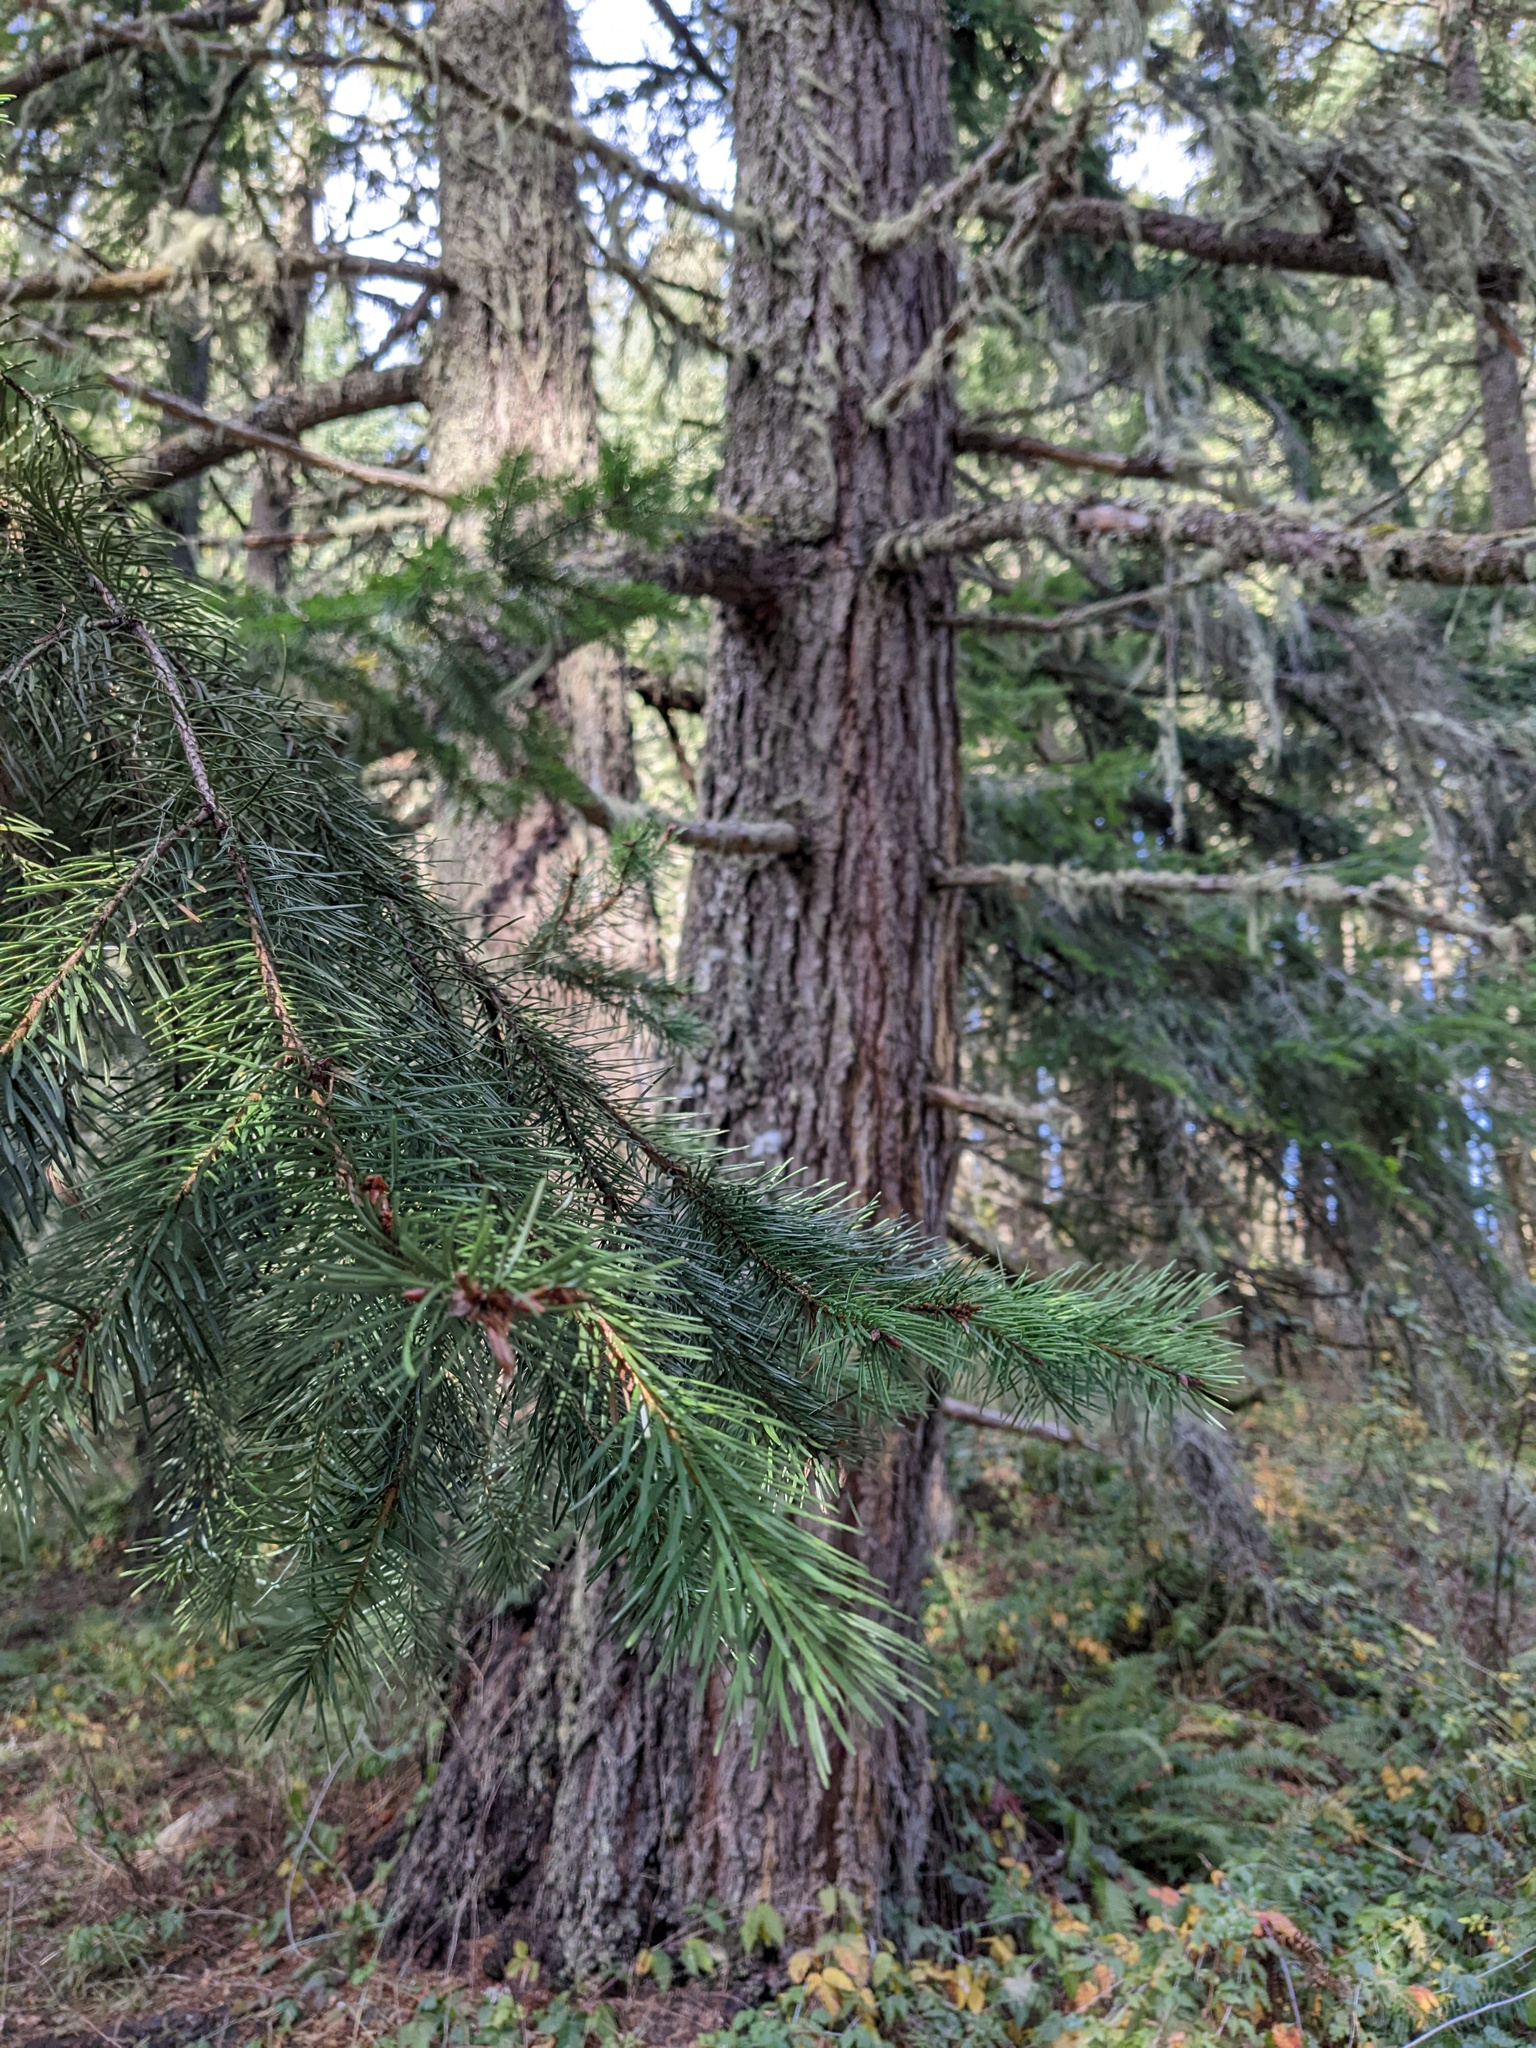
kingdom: Plantae
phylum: Tracheophyta
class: Pinopsida
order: Pinales
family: Pinaceae
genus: Pseudotsuga
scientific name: Pseudotsuga menziesii
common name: Douglas fir
